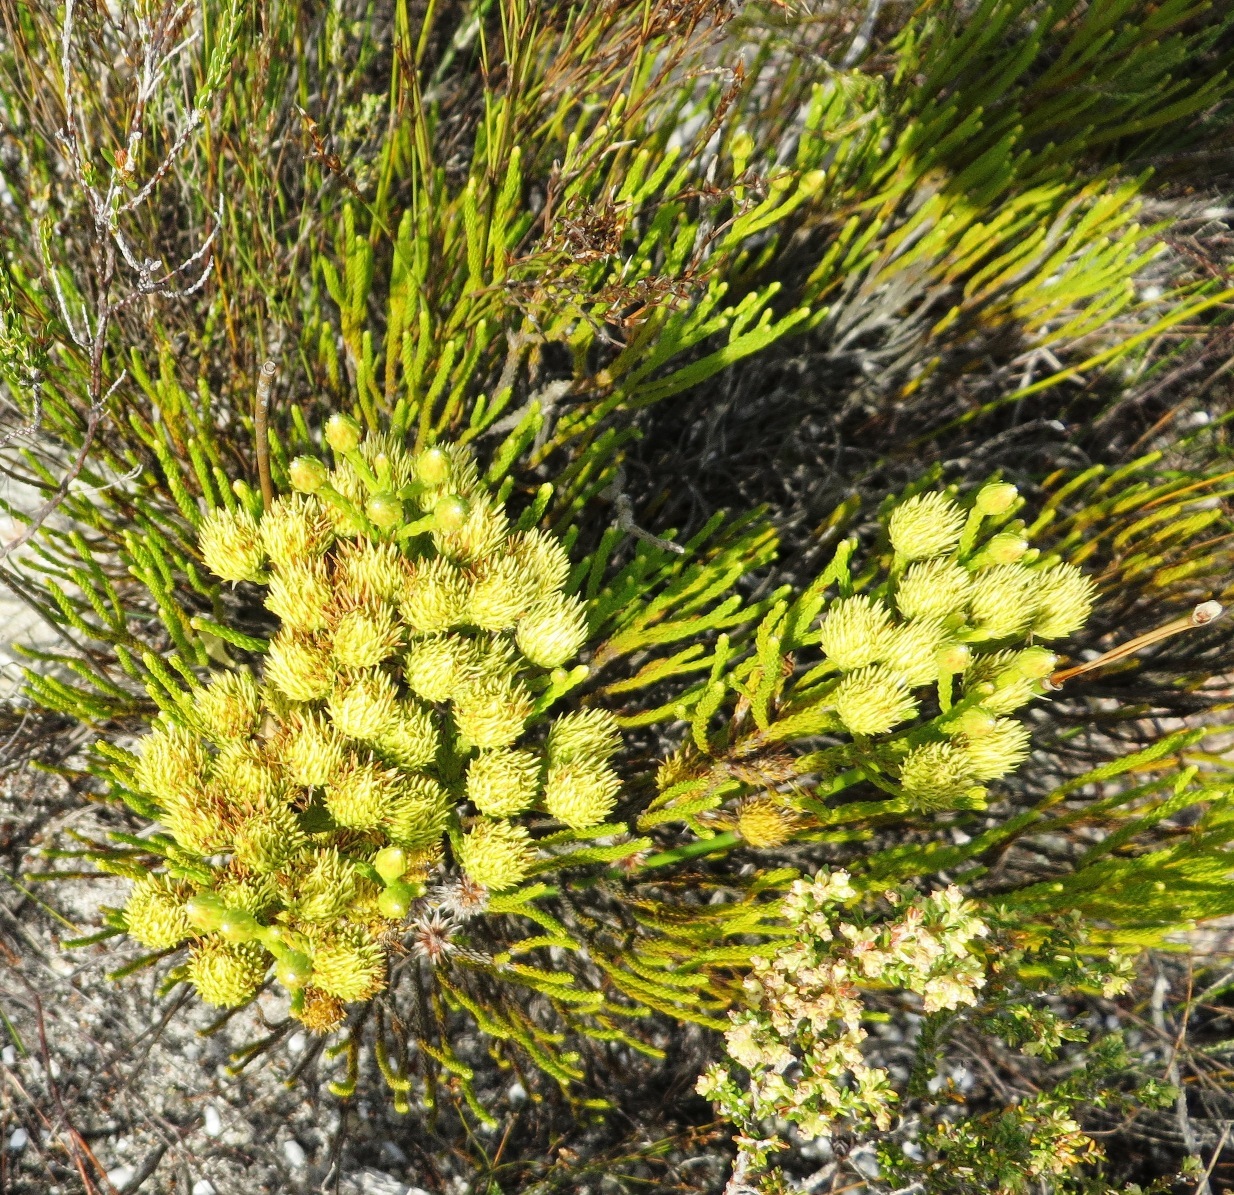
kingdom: Plantae
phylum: Tracheophyta
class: Magnoliopsida
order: Bruniales
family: Bruniaceae
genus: Brunia
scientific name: Brunia paleacea
